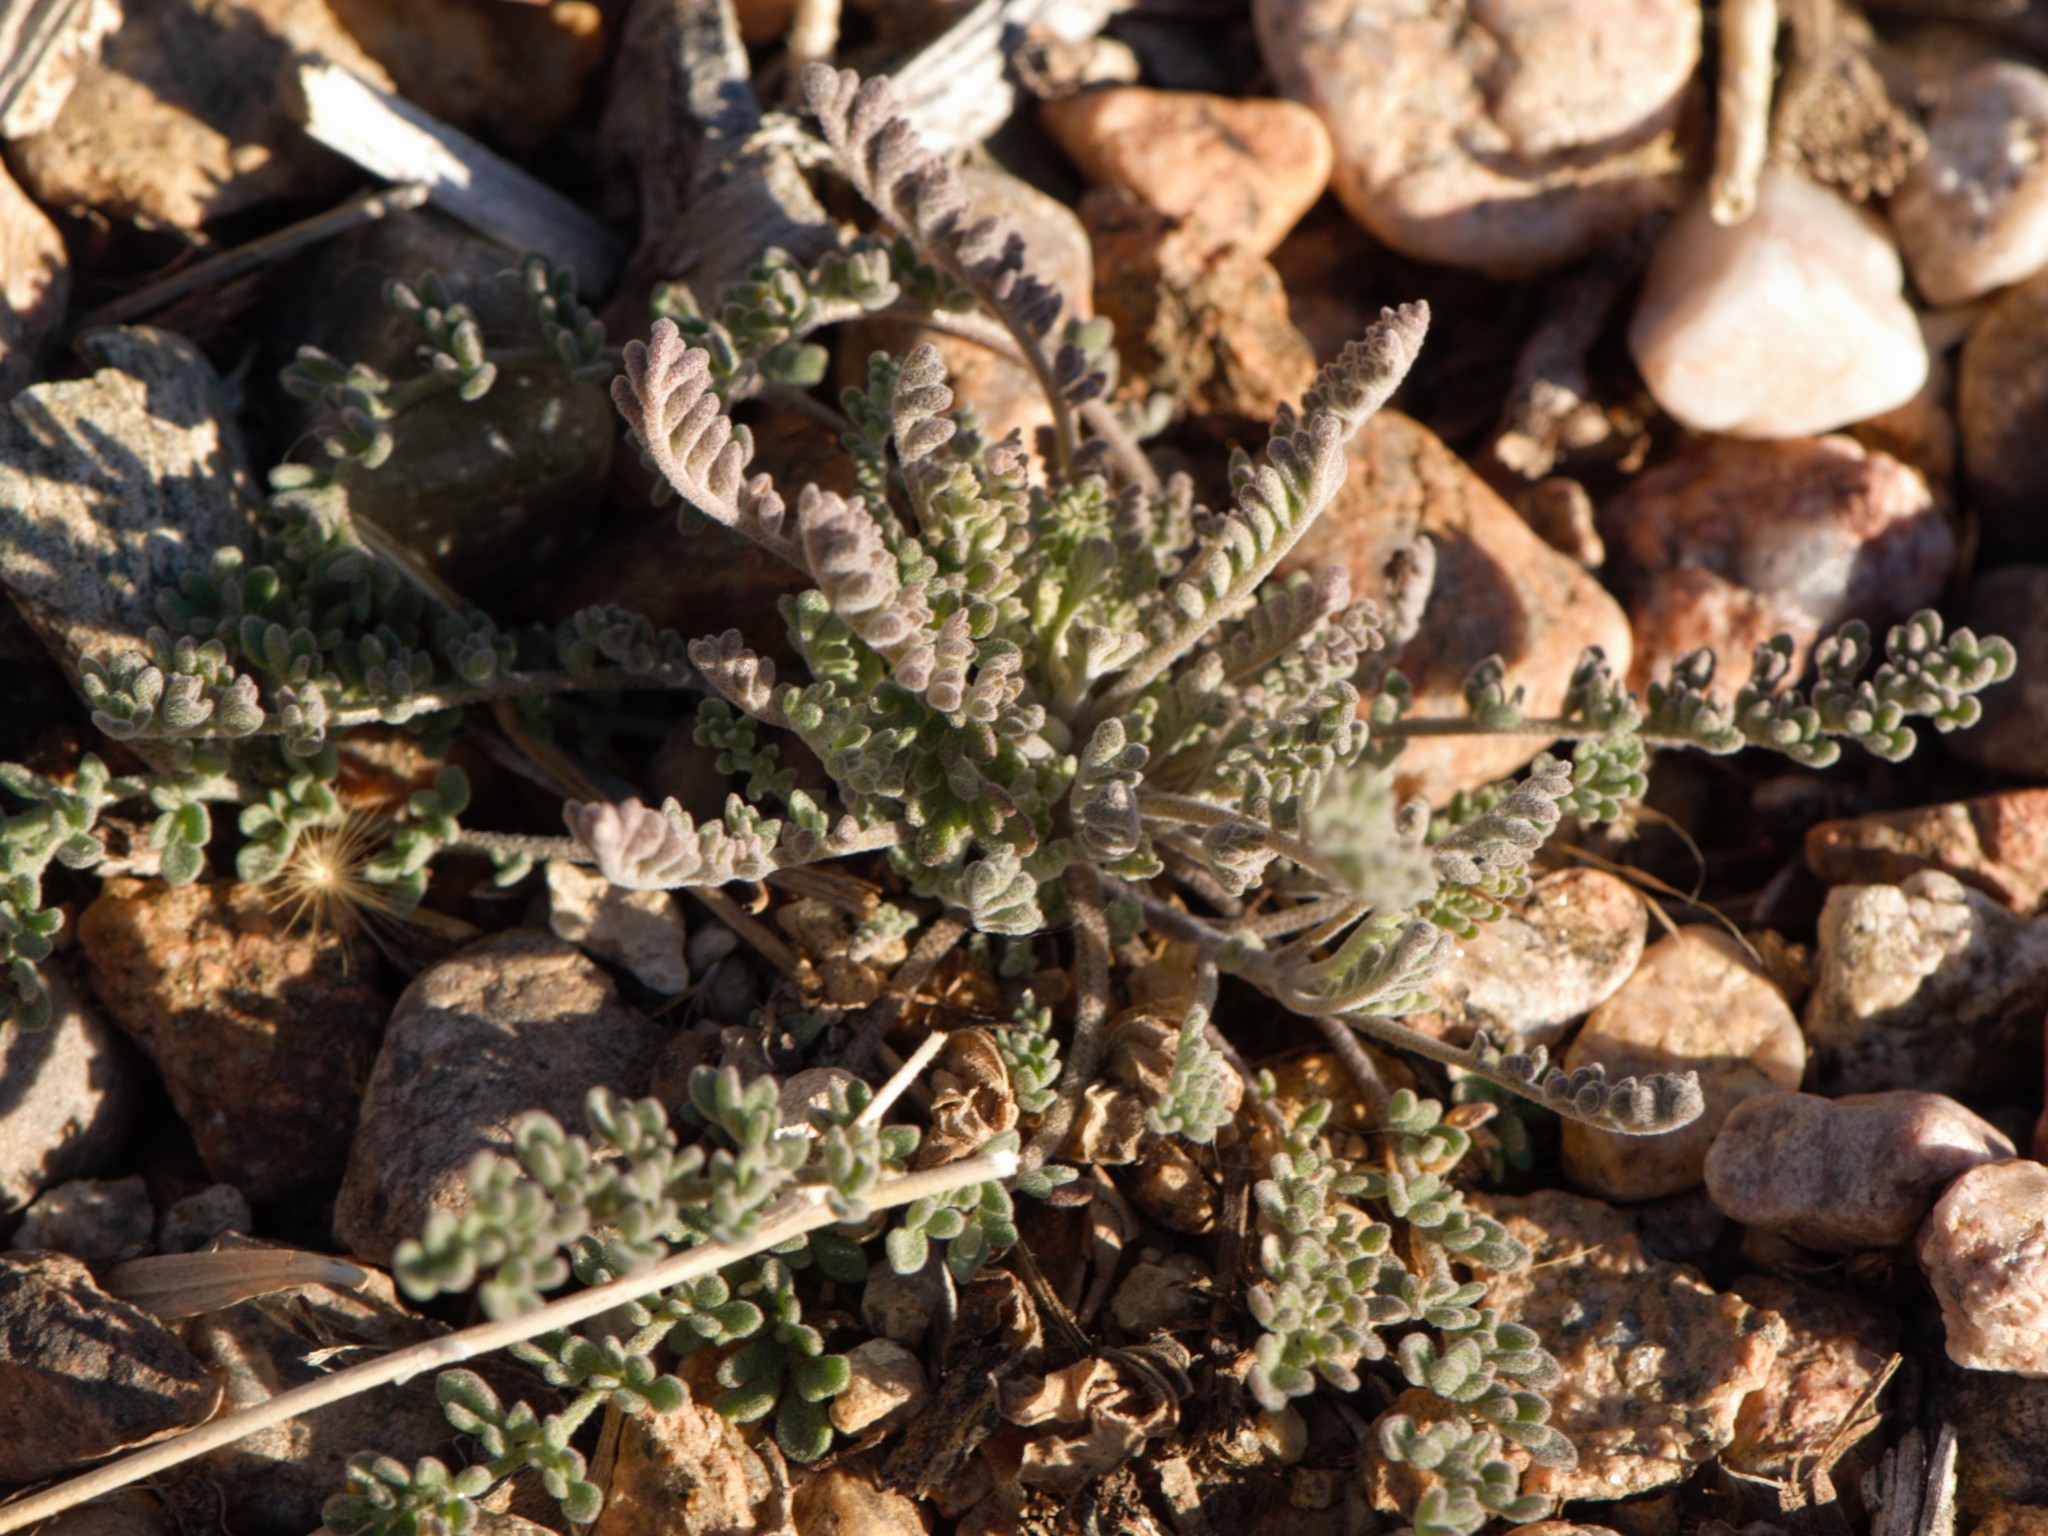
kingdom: Plantae
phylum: Tracheophyta
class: Magnoliopsida
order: Brassicales
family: Brassicaceae
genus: Descurainia
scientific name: Descurainia pinnata
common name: Western tansy mustard
